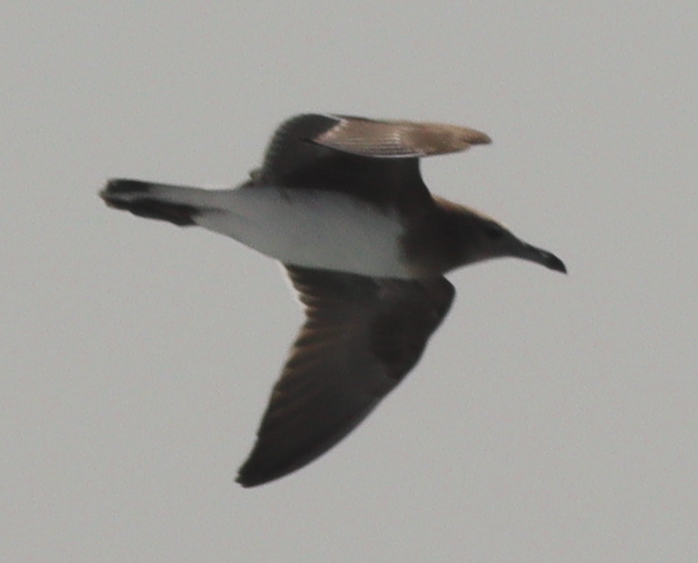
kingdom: Animalia
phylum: Chordata
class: Aves
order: Charadriiformes
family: Laridae
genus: Ichthyaetus
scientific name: Ichthyaetus hemprichii
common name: Sooty gull
